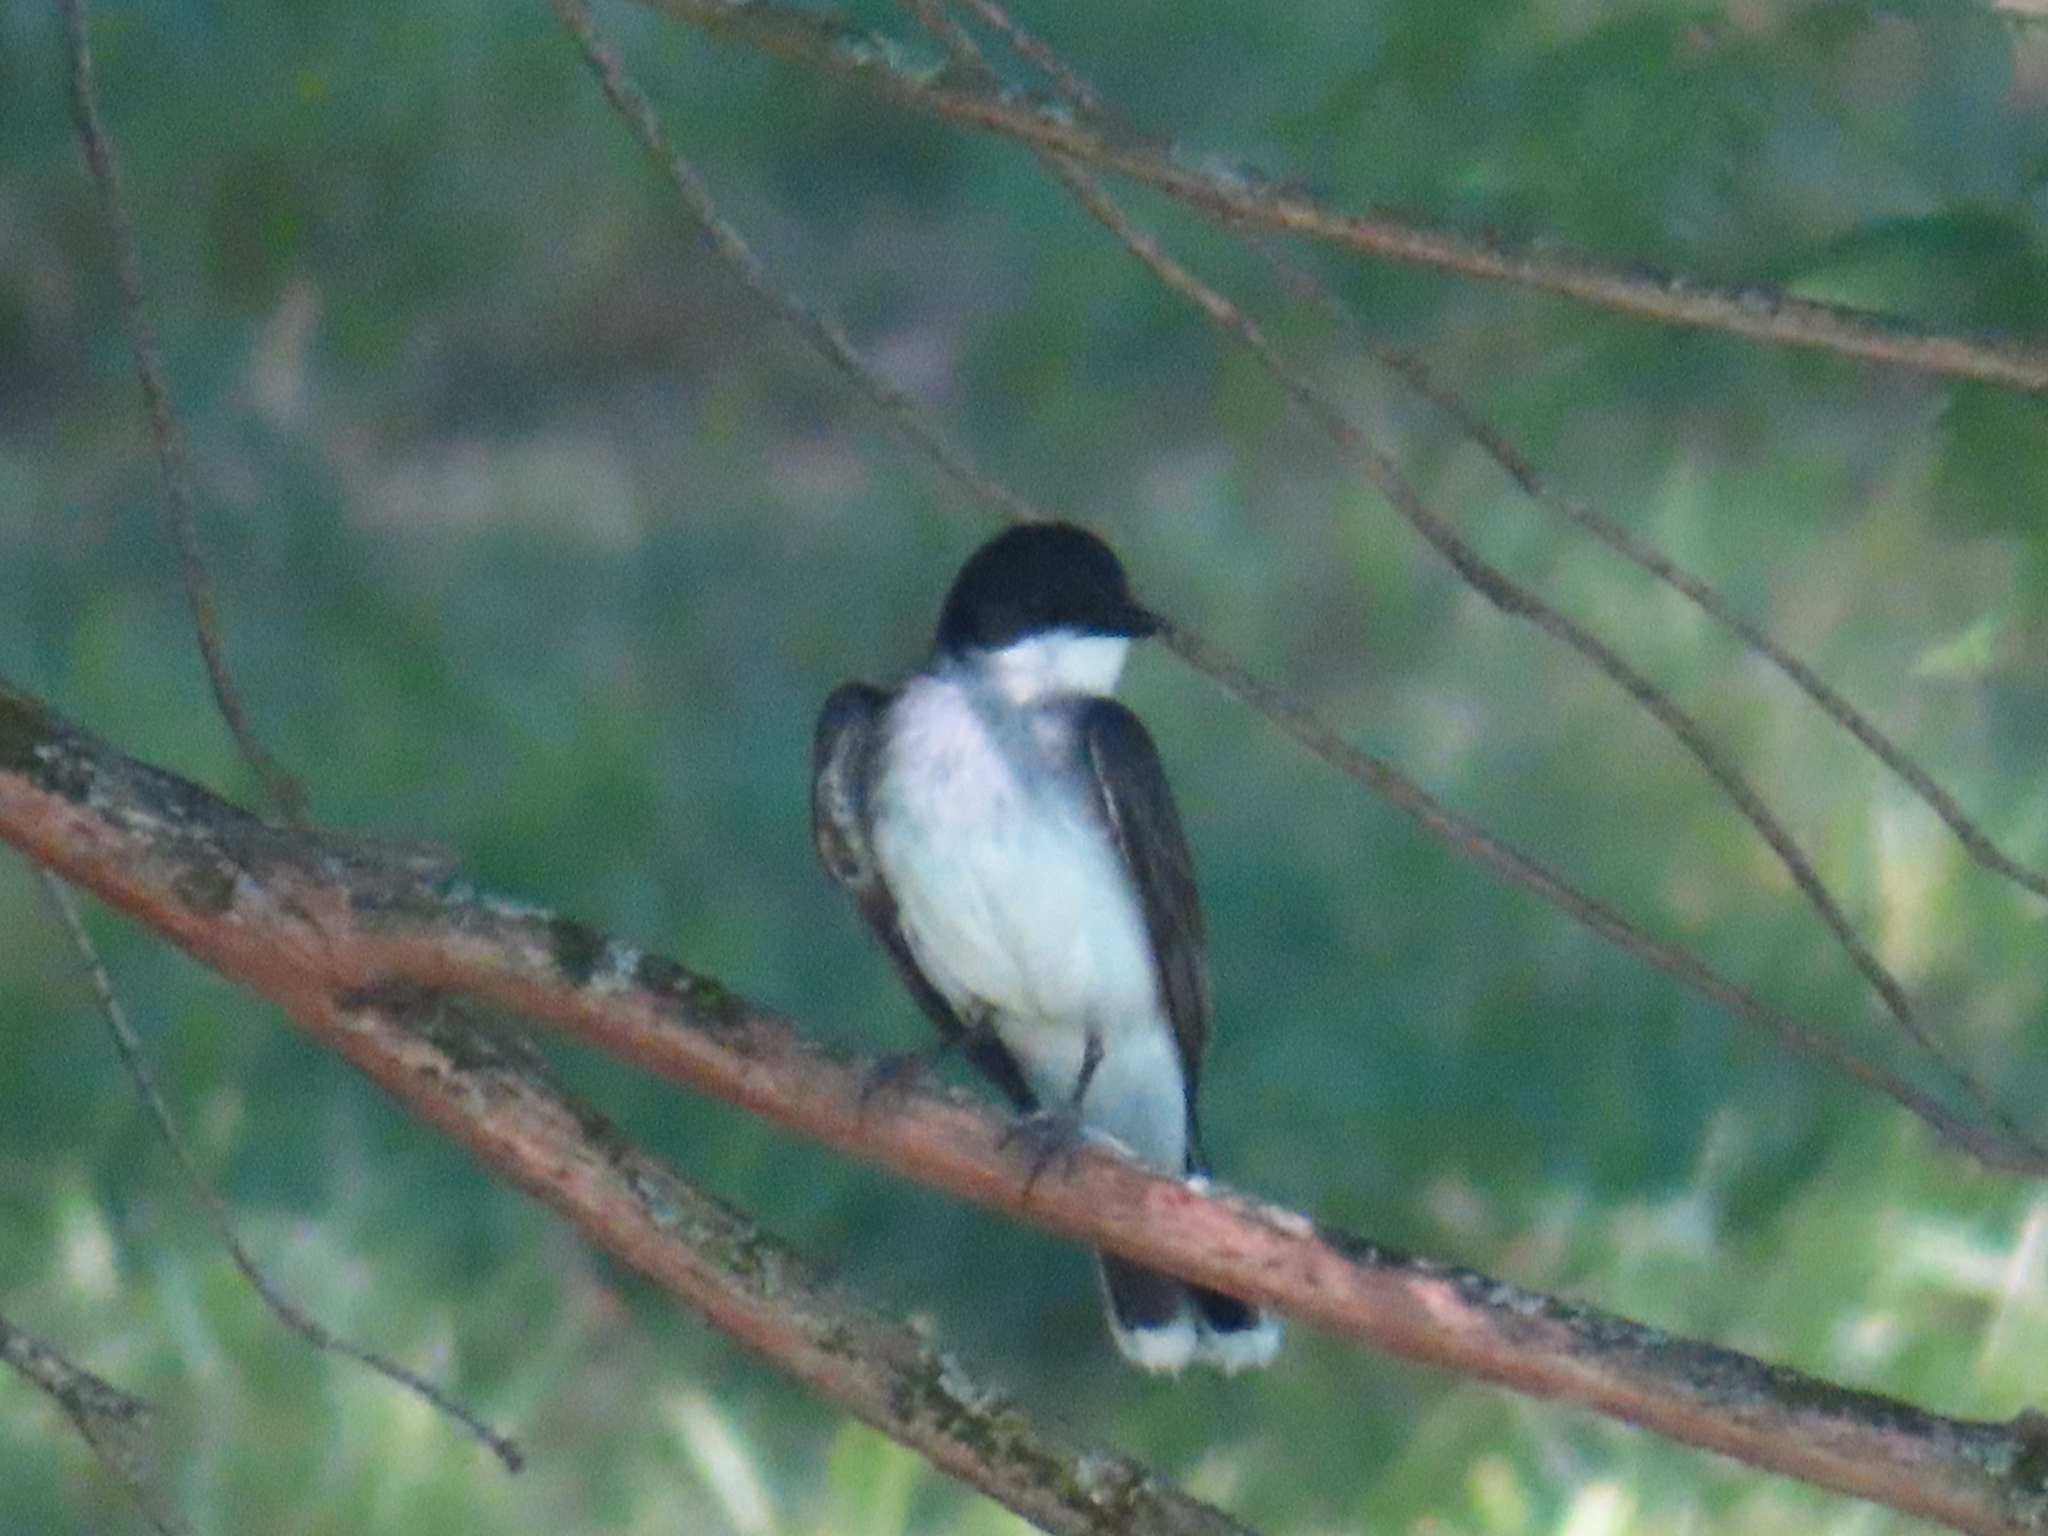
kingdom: Animalia
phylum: Chordata
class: Aves
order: Passeriformes
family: Tyrannidae
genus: Tyrannus
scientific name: Tyrannus tyrannus
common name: Eastern kingbird
